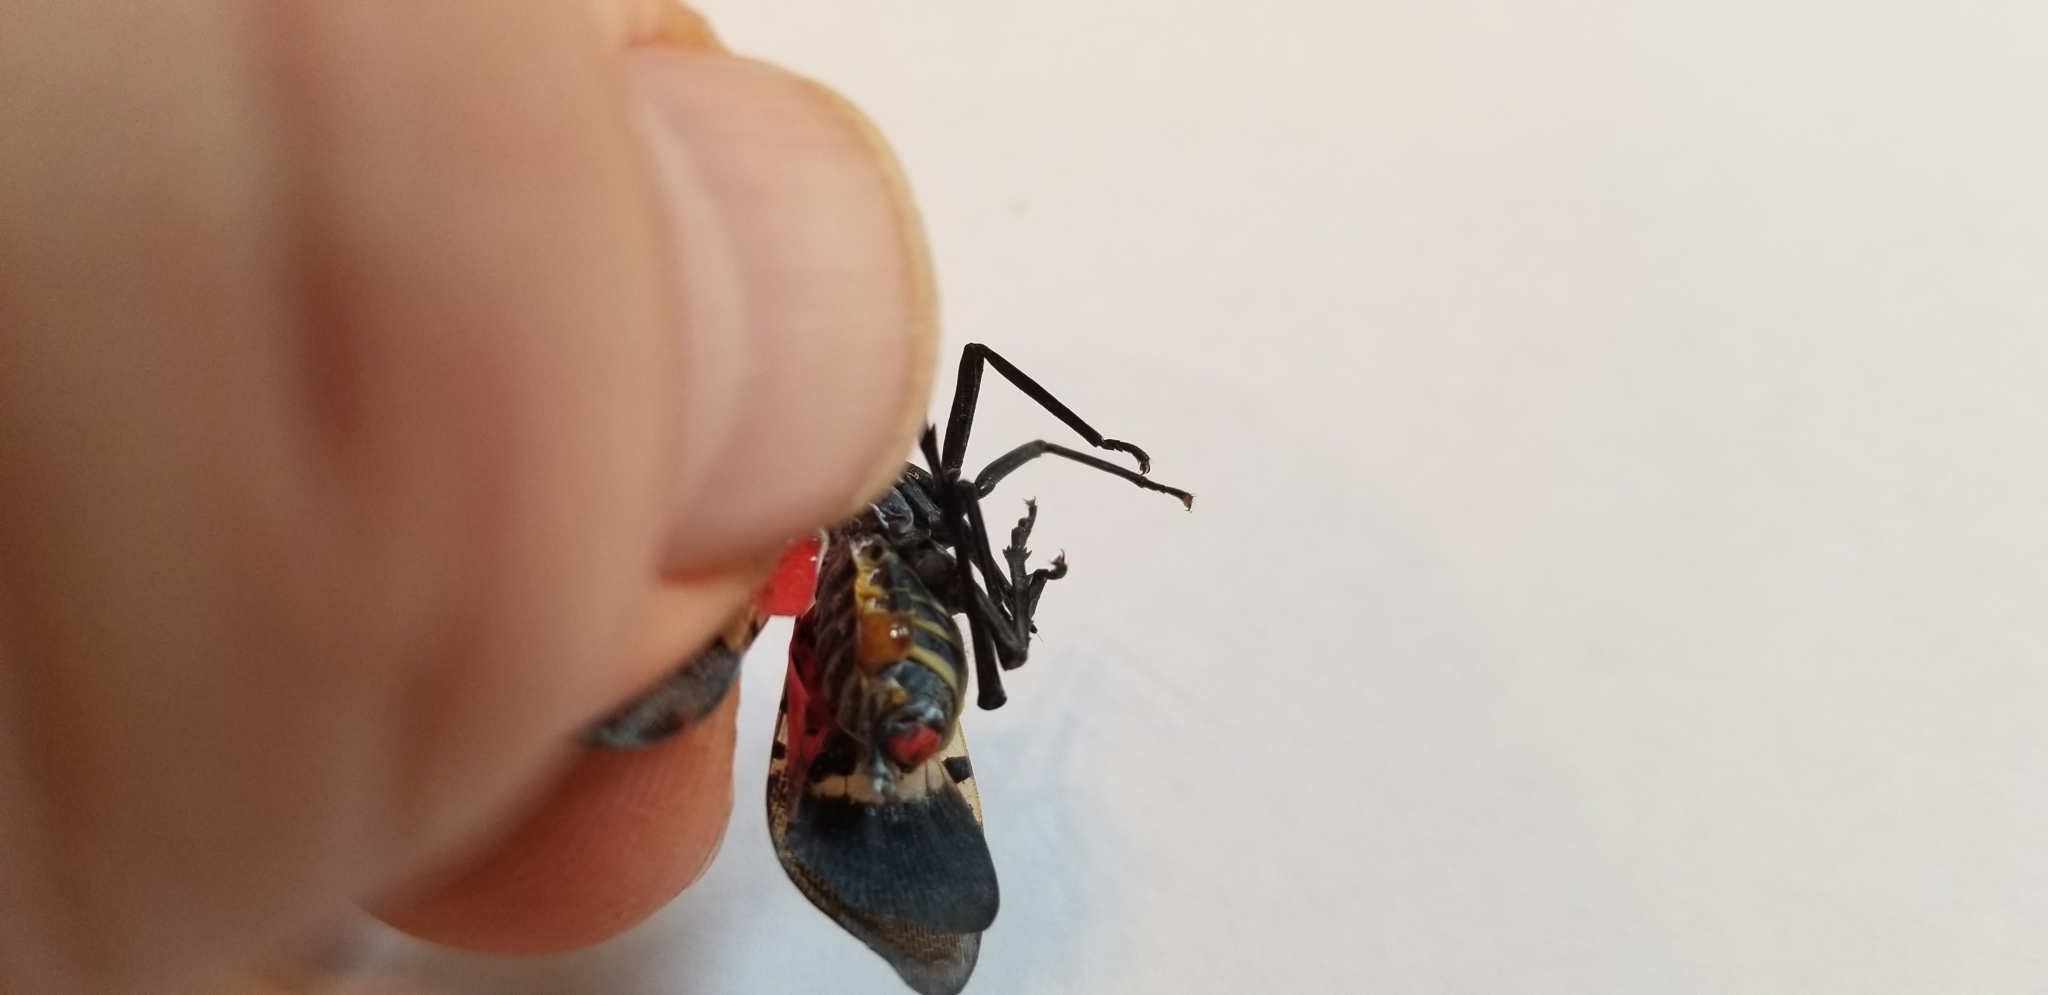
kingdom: Animalia
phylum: Arthropoda
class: Insecta
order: Hemiptera
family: Fulgoridae
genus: Lycorma
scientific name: Lycorma delicatula
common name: Spotted lanternfly
